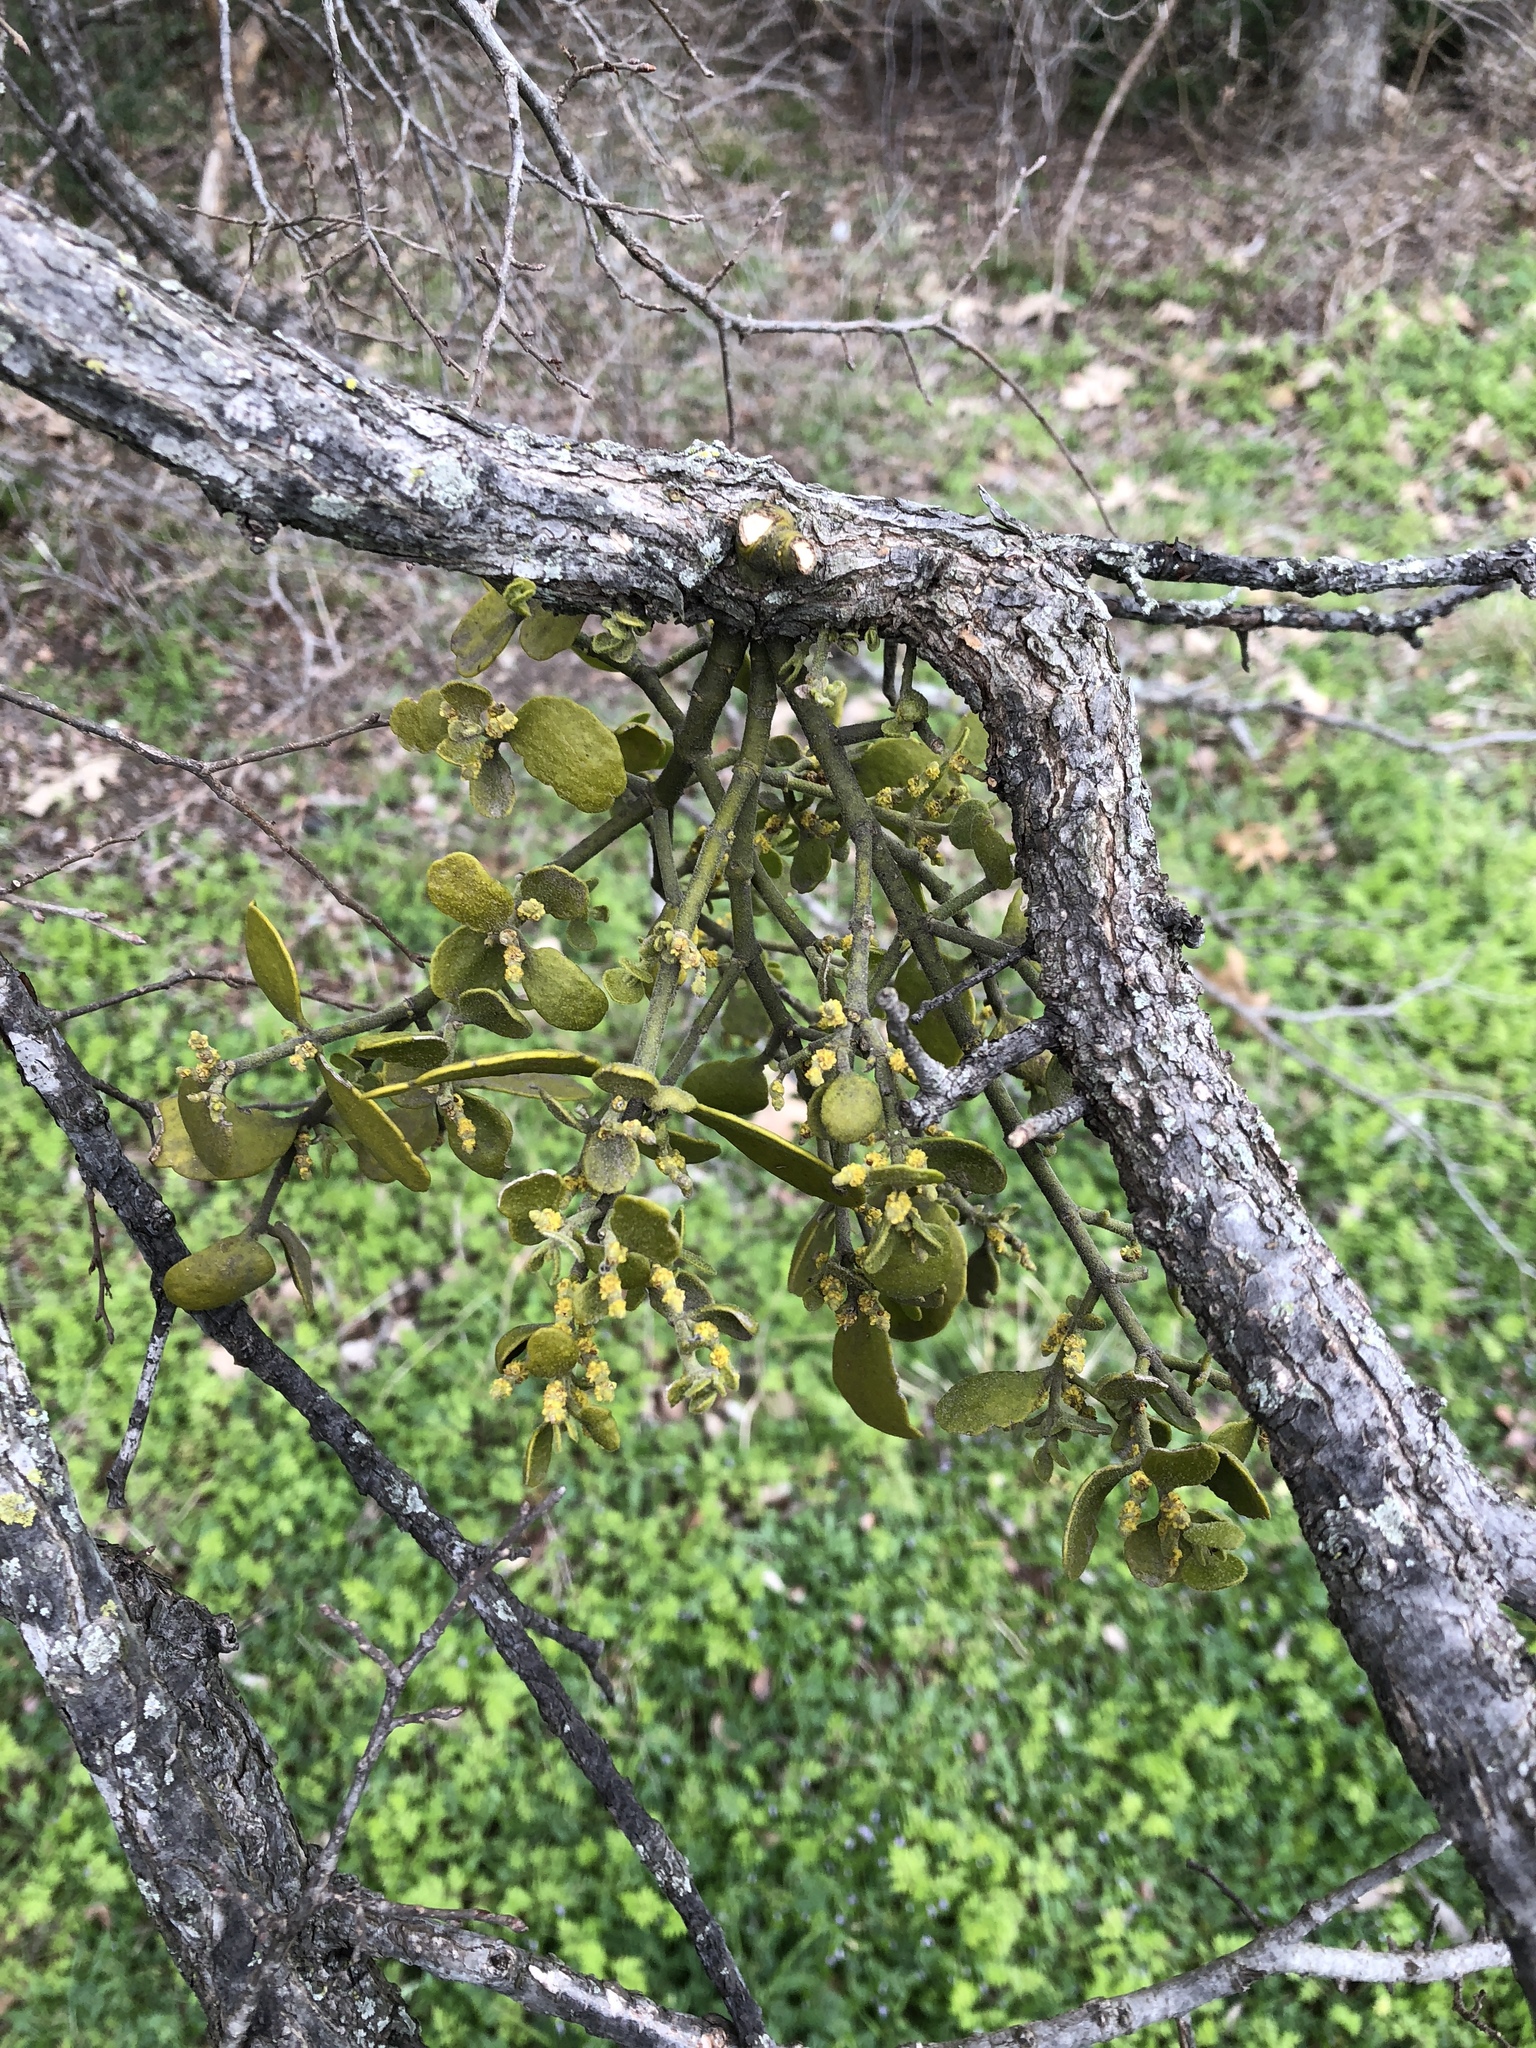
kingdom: Plantae
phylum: Tracheophyta
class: Magnoliopsida
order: Santalales
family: Viscaceae
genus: Phoradendron
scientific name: Phoradendron leucarpum
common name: Pacific mistletoe
